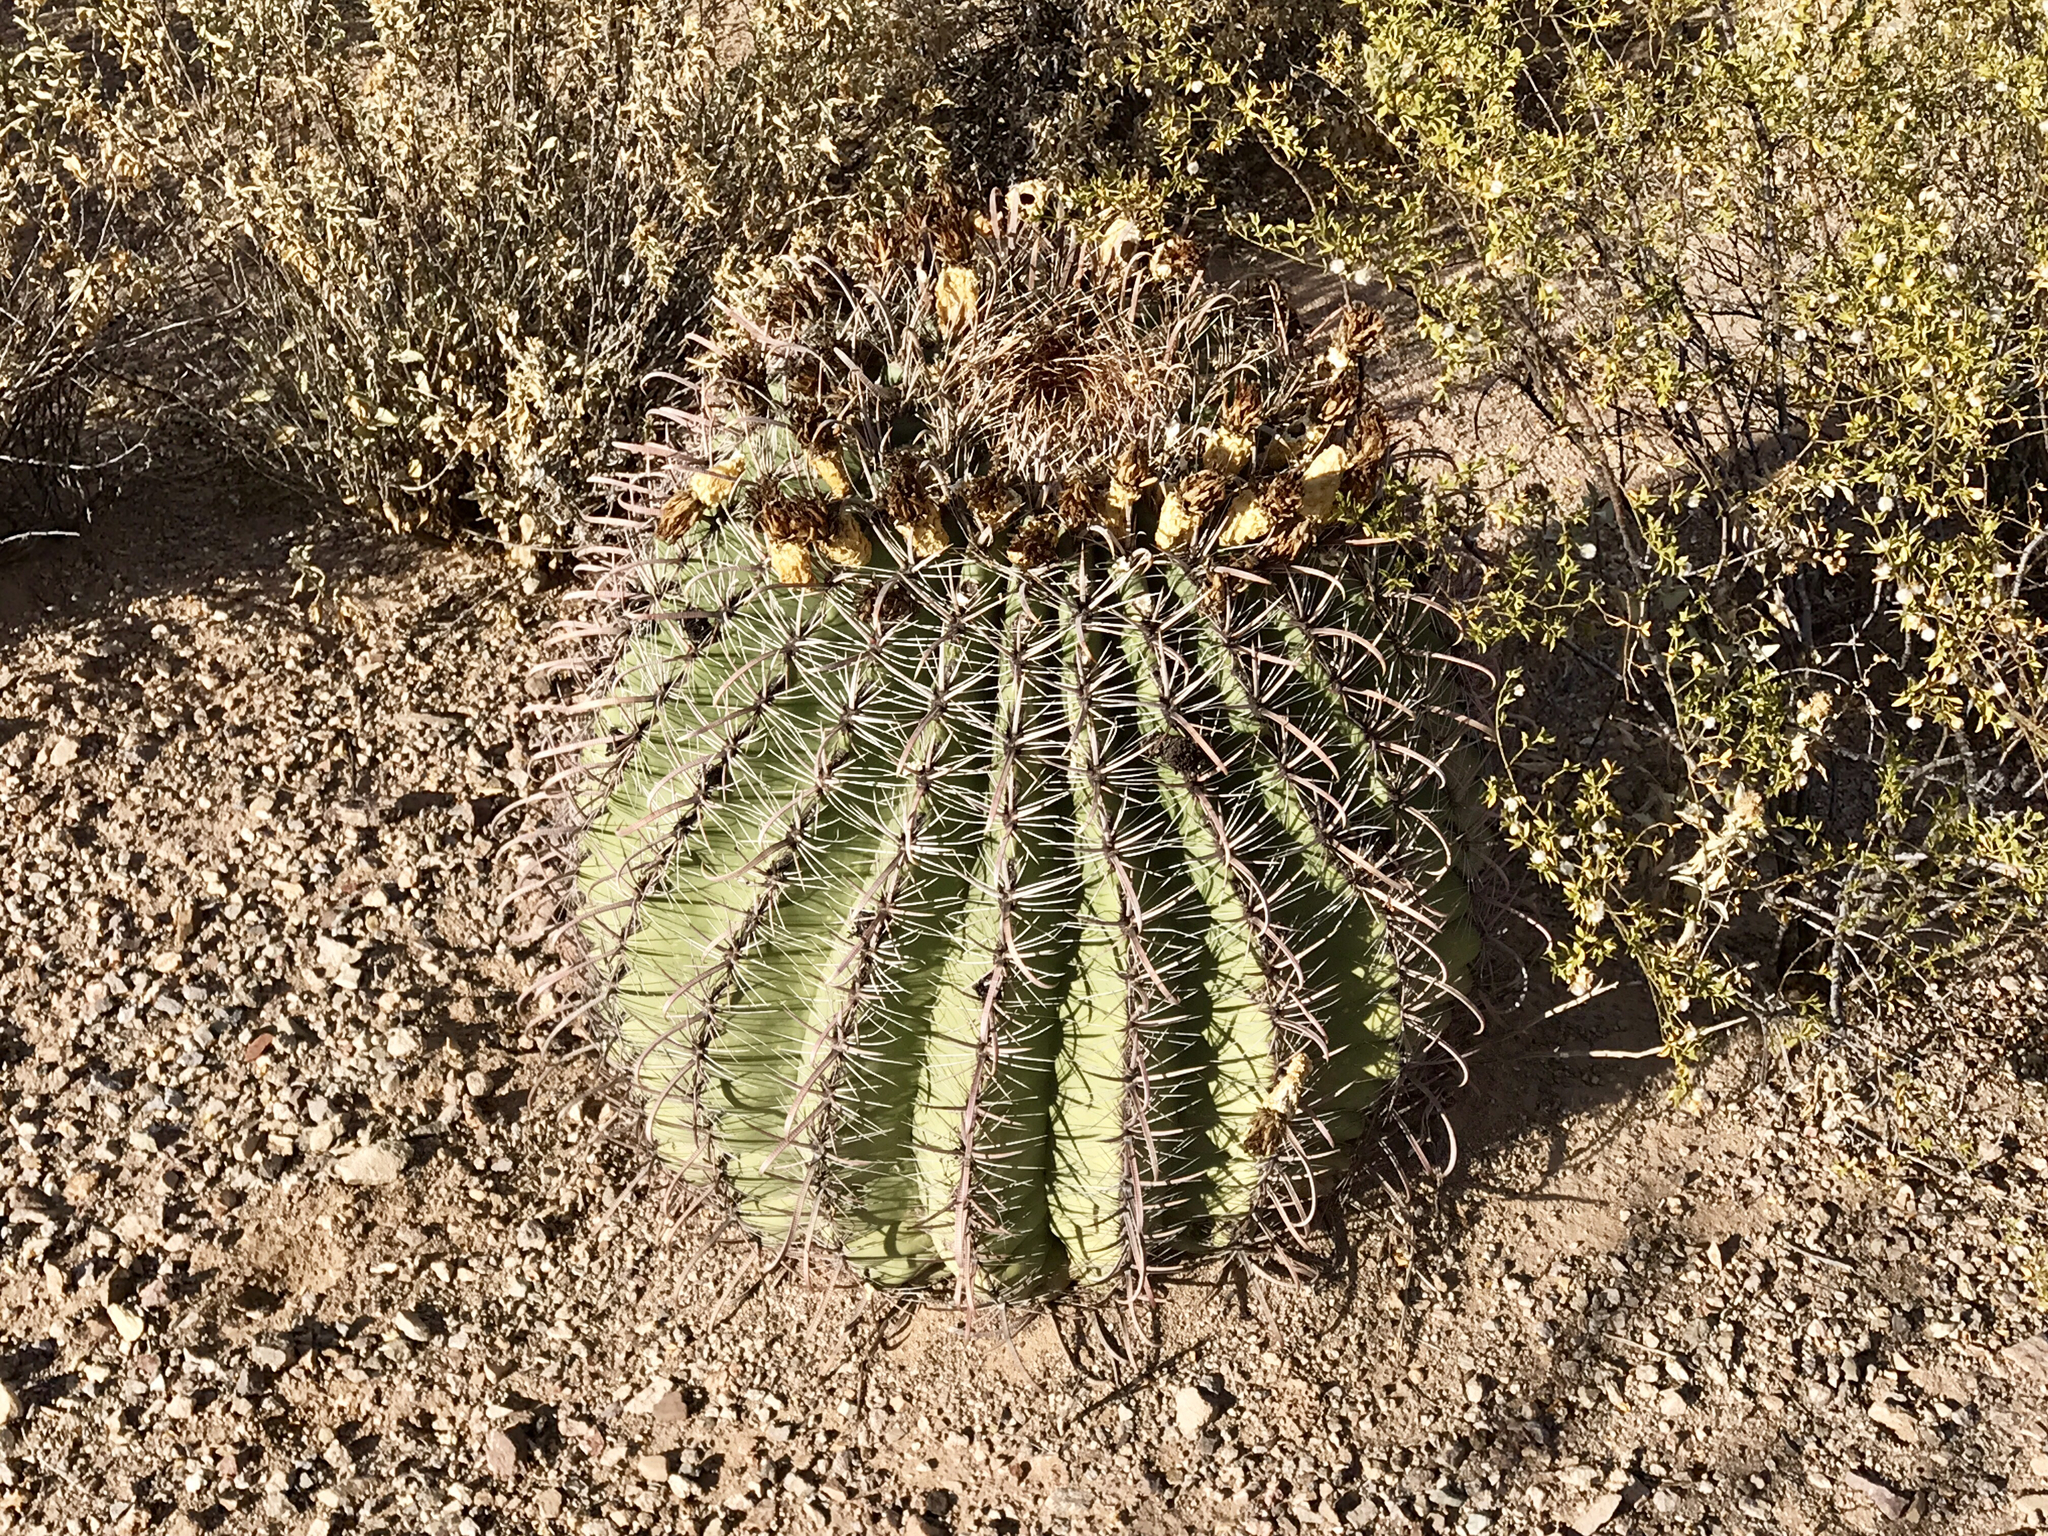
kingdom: Plantae
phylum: Tracheophyta
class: Magnoliopsida
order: Caryophyllales
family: Cactaceae
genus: Ferocactus
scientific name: Ferocactus wislizeni
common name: Candy barrel cactus
